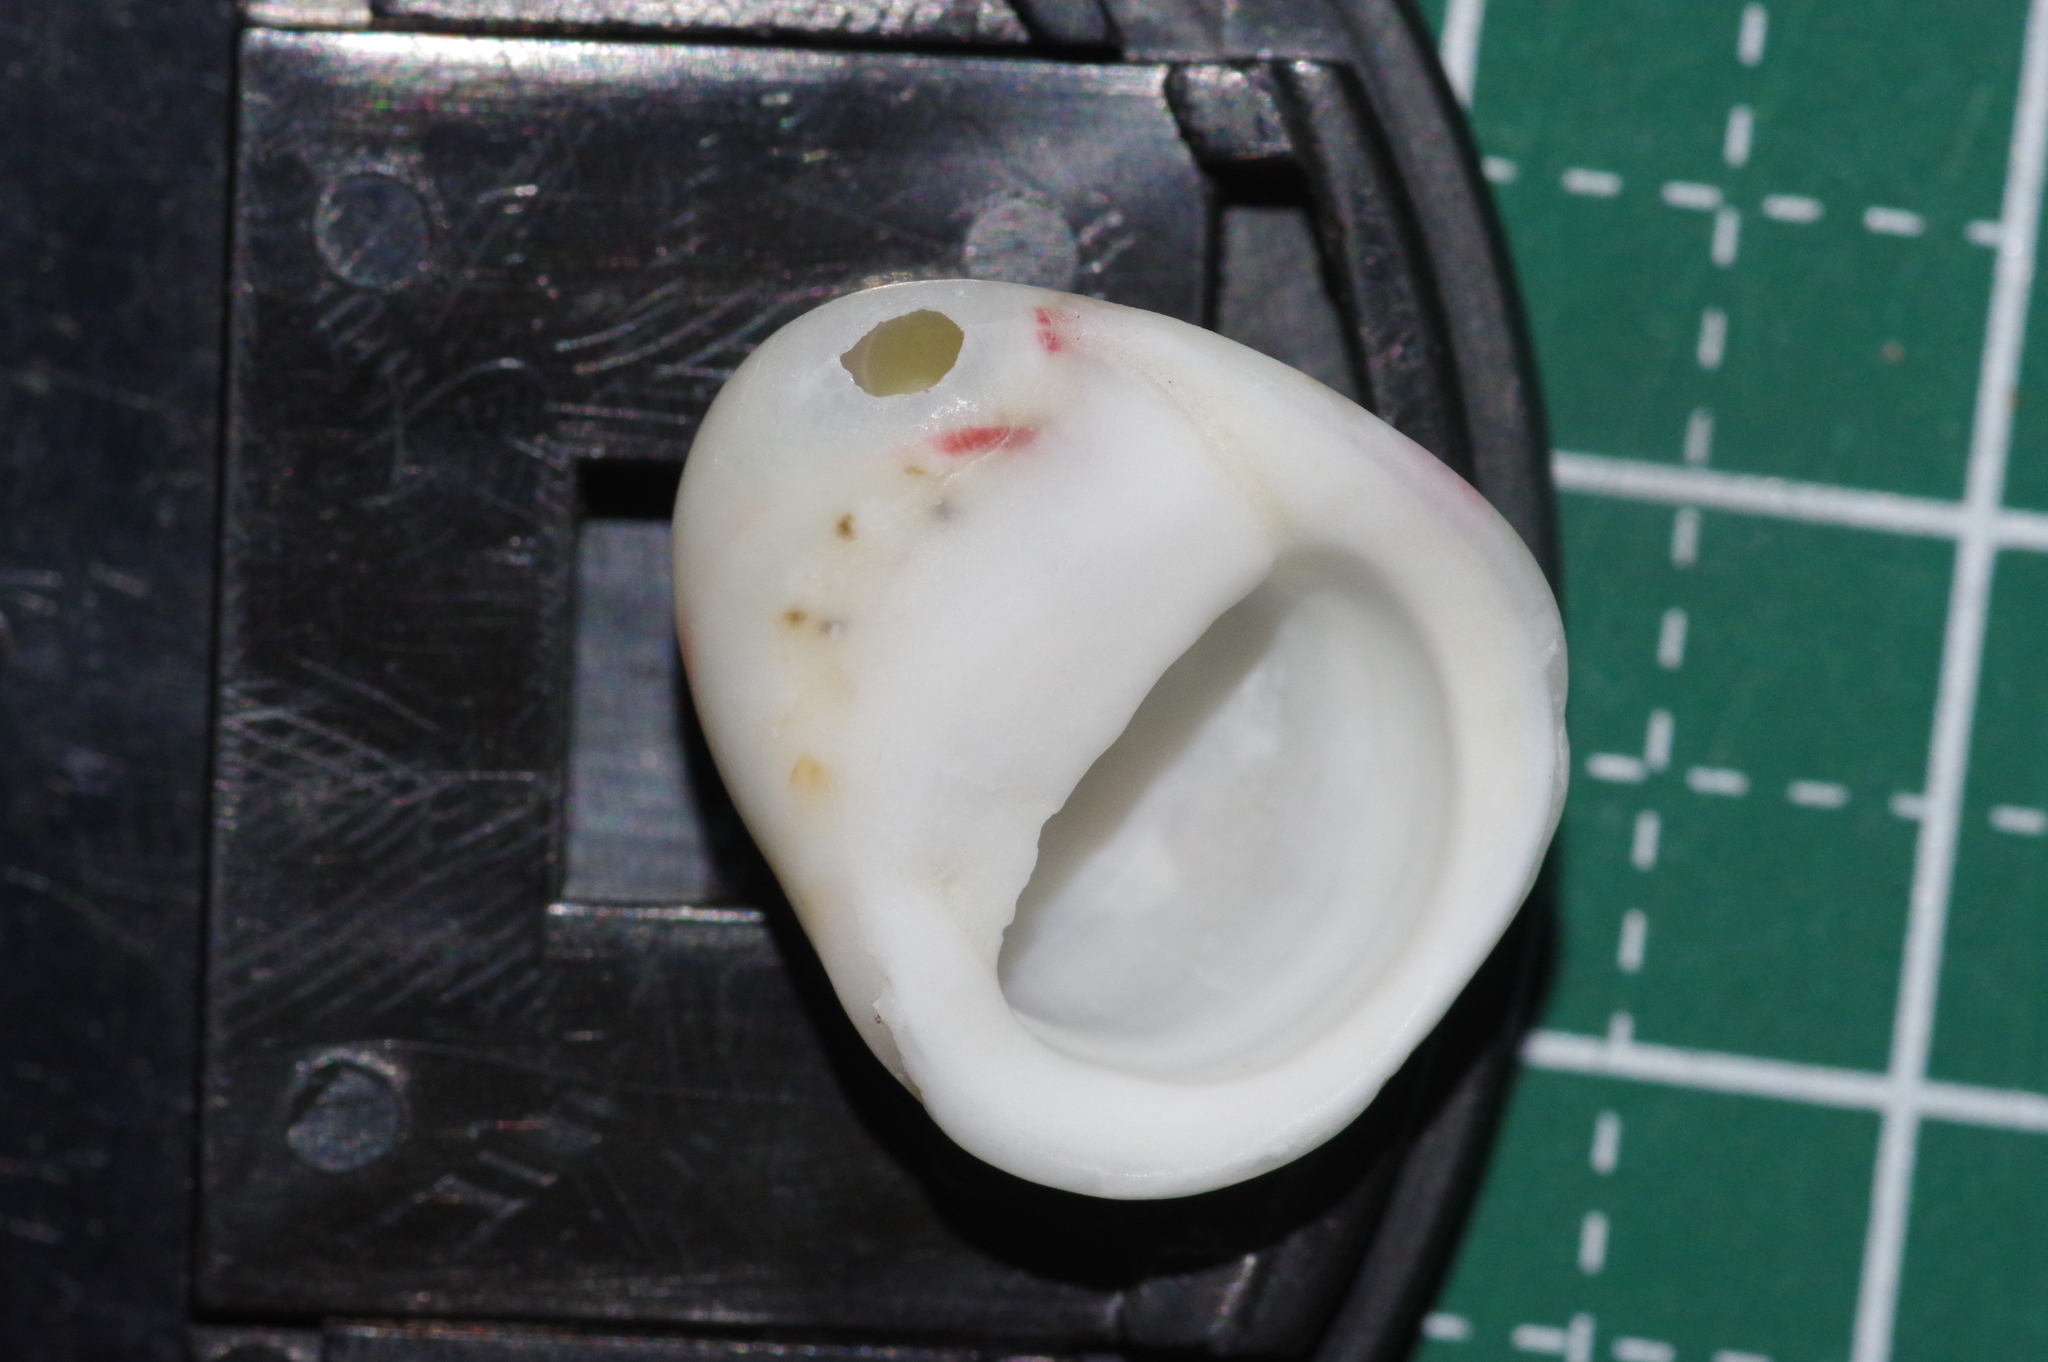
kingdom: Animalia
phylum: Mollusca
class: Gastropoda
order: Cycloneritida
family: Neritidae
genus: Nerita
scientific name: Nerita polita
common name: Polished nerite
